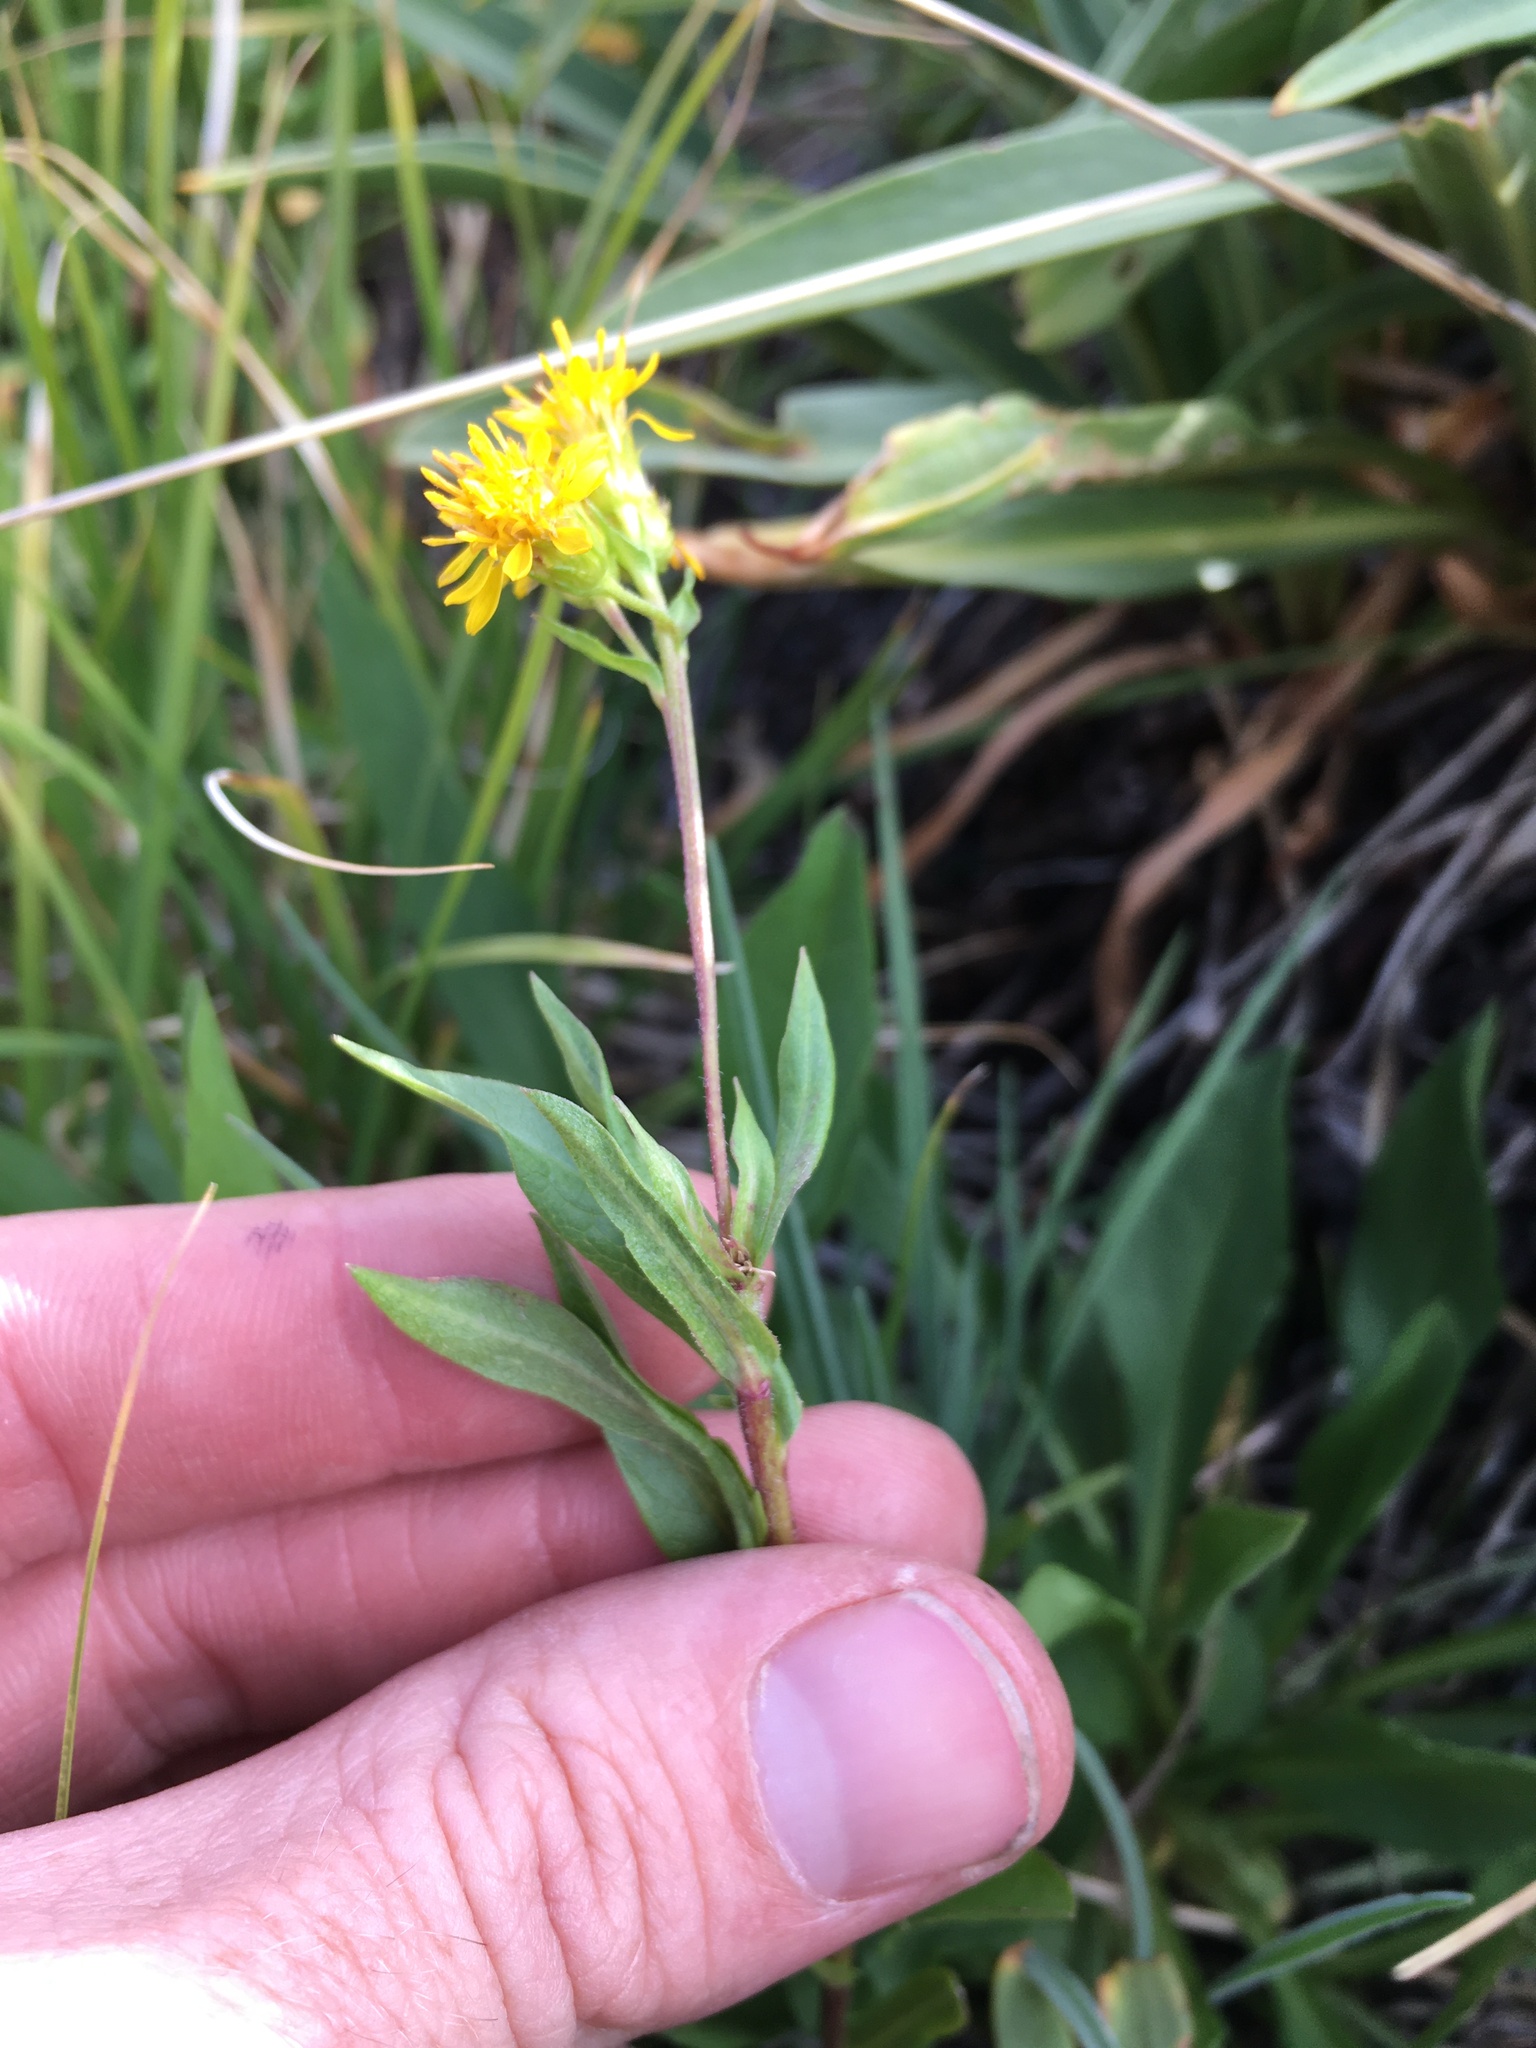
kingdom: Plantae
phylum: Tracheophyta
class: Magnoliopsida
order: Asterales
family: Asteraceae
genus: Solidago
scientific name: Solidago multiradiata
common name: Northern goldenrod
